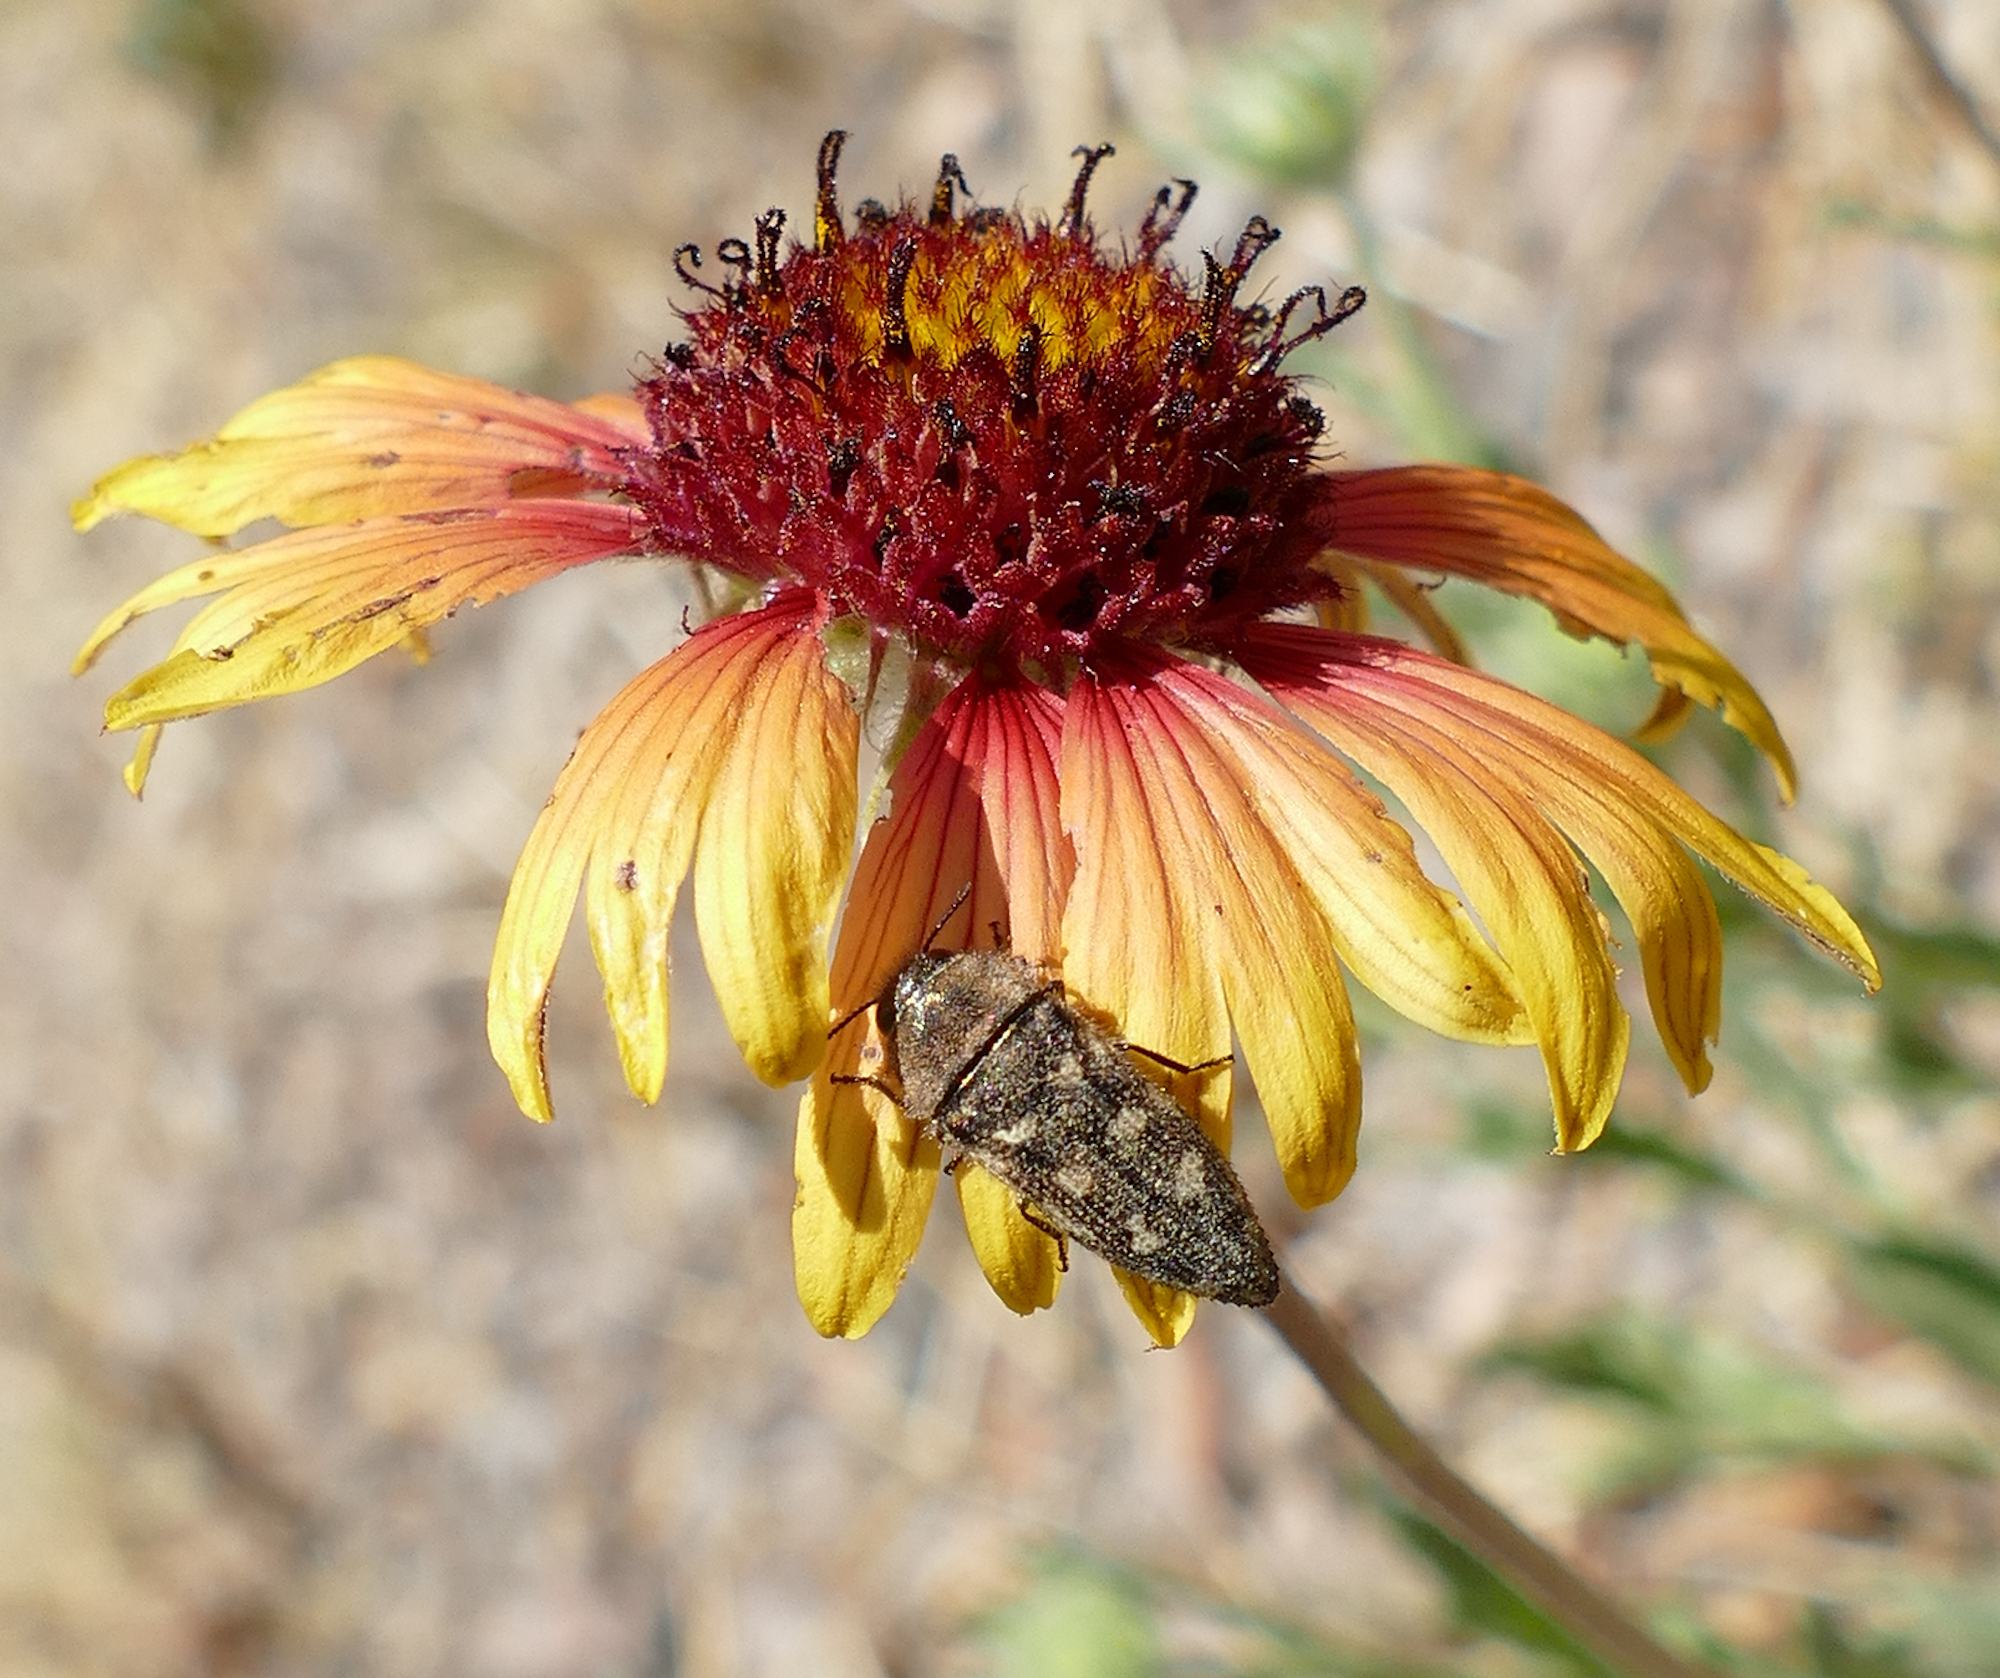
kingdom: Animalia
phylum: Arthropoda
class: Insecta
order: Coleoptera
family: Buprestidae
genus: Acmaeodera
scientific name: Acmaeodera bowditchi
